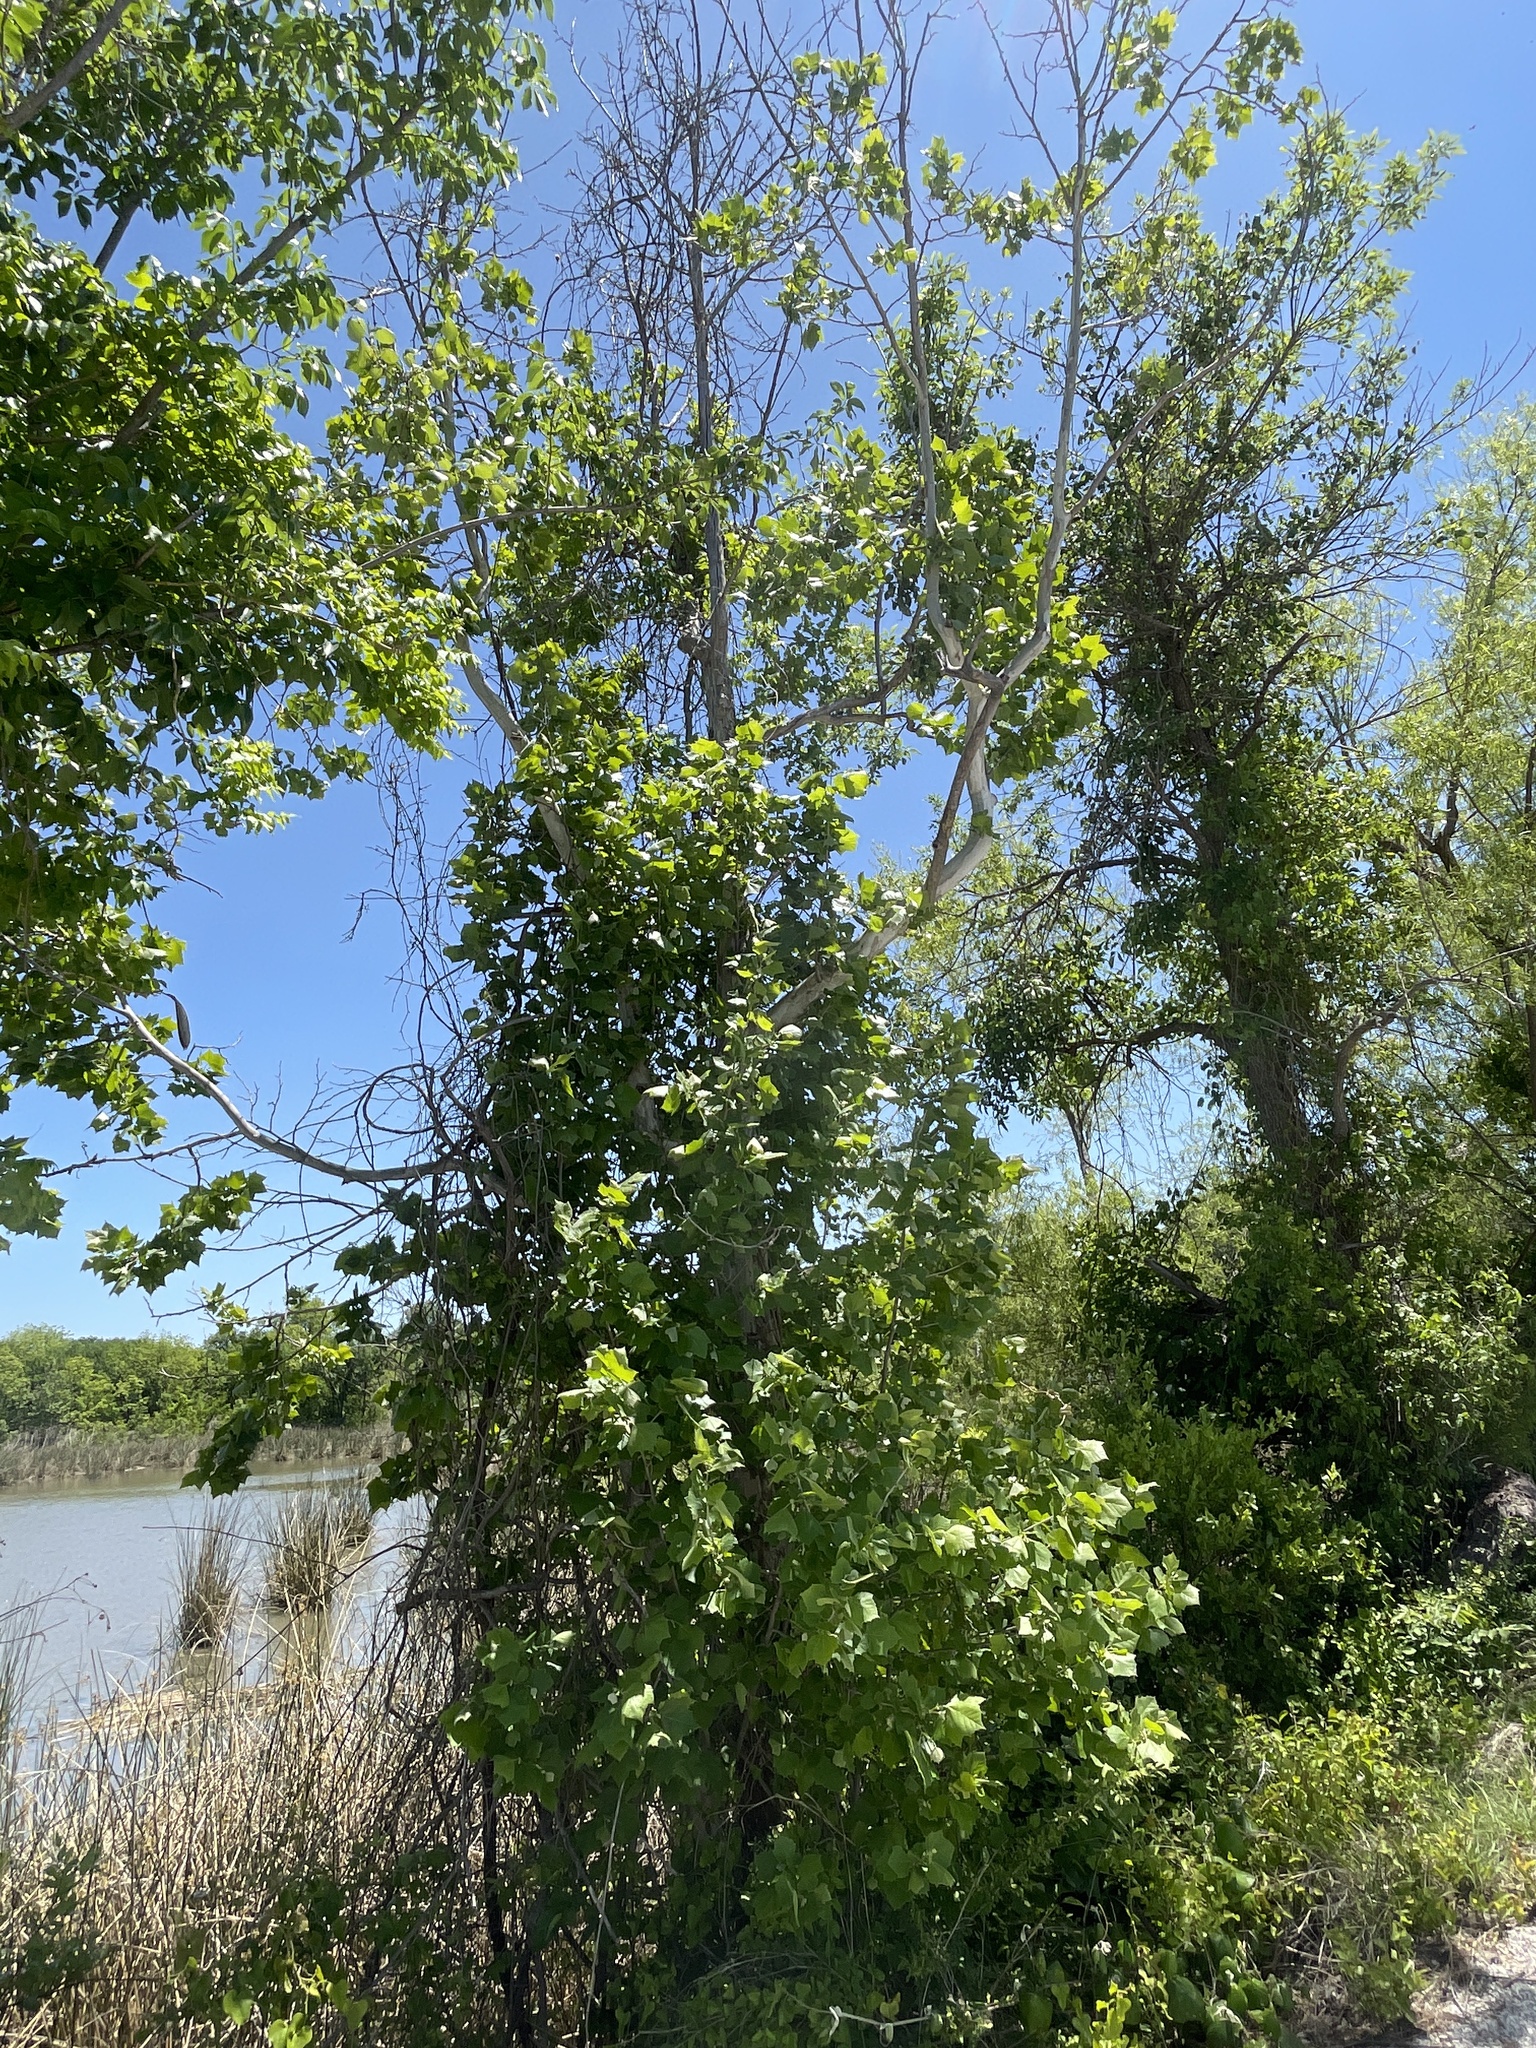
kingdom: Plantae
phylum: Tracheophyta
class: Magnoliopsida
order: Proteales
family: Platanaceae
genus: Platanus
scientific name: Platanus occidentalis
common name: American sycamore
